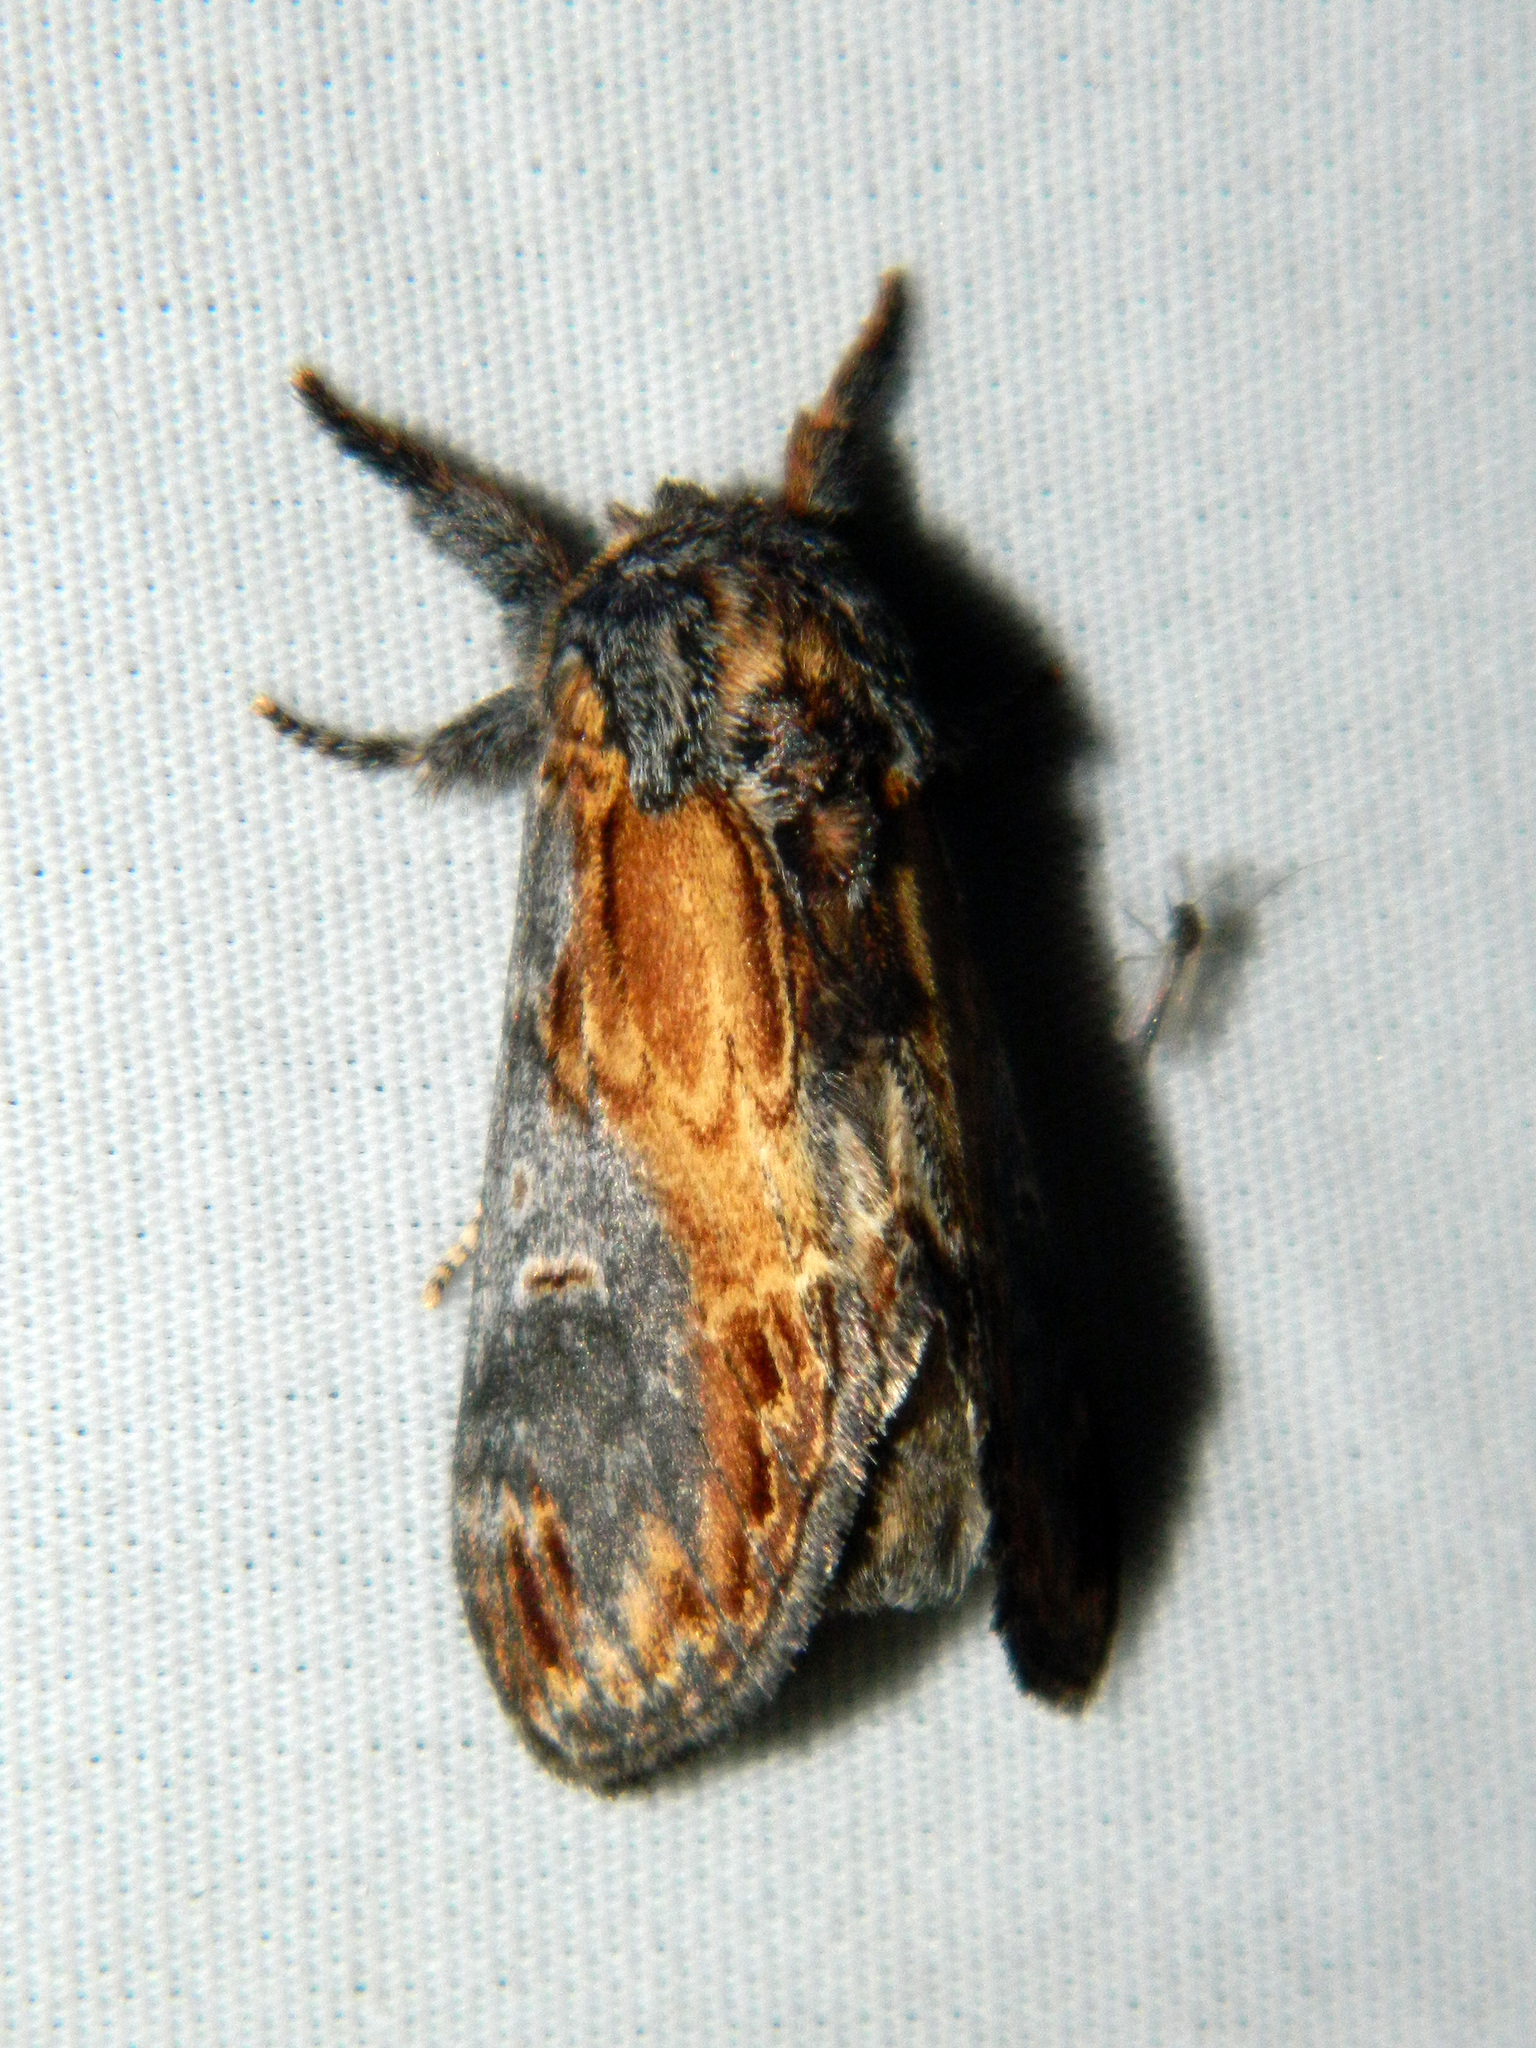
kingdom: Animalia
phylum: Arthropoda
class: Insecta
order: Lepidoptera
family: Notodontidae
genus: Notodonta
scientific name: Notodonta scitipennis
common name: Finned-willow prominent moth
